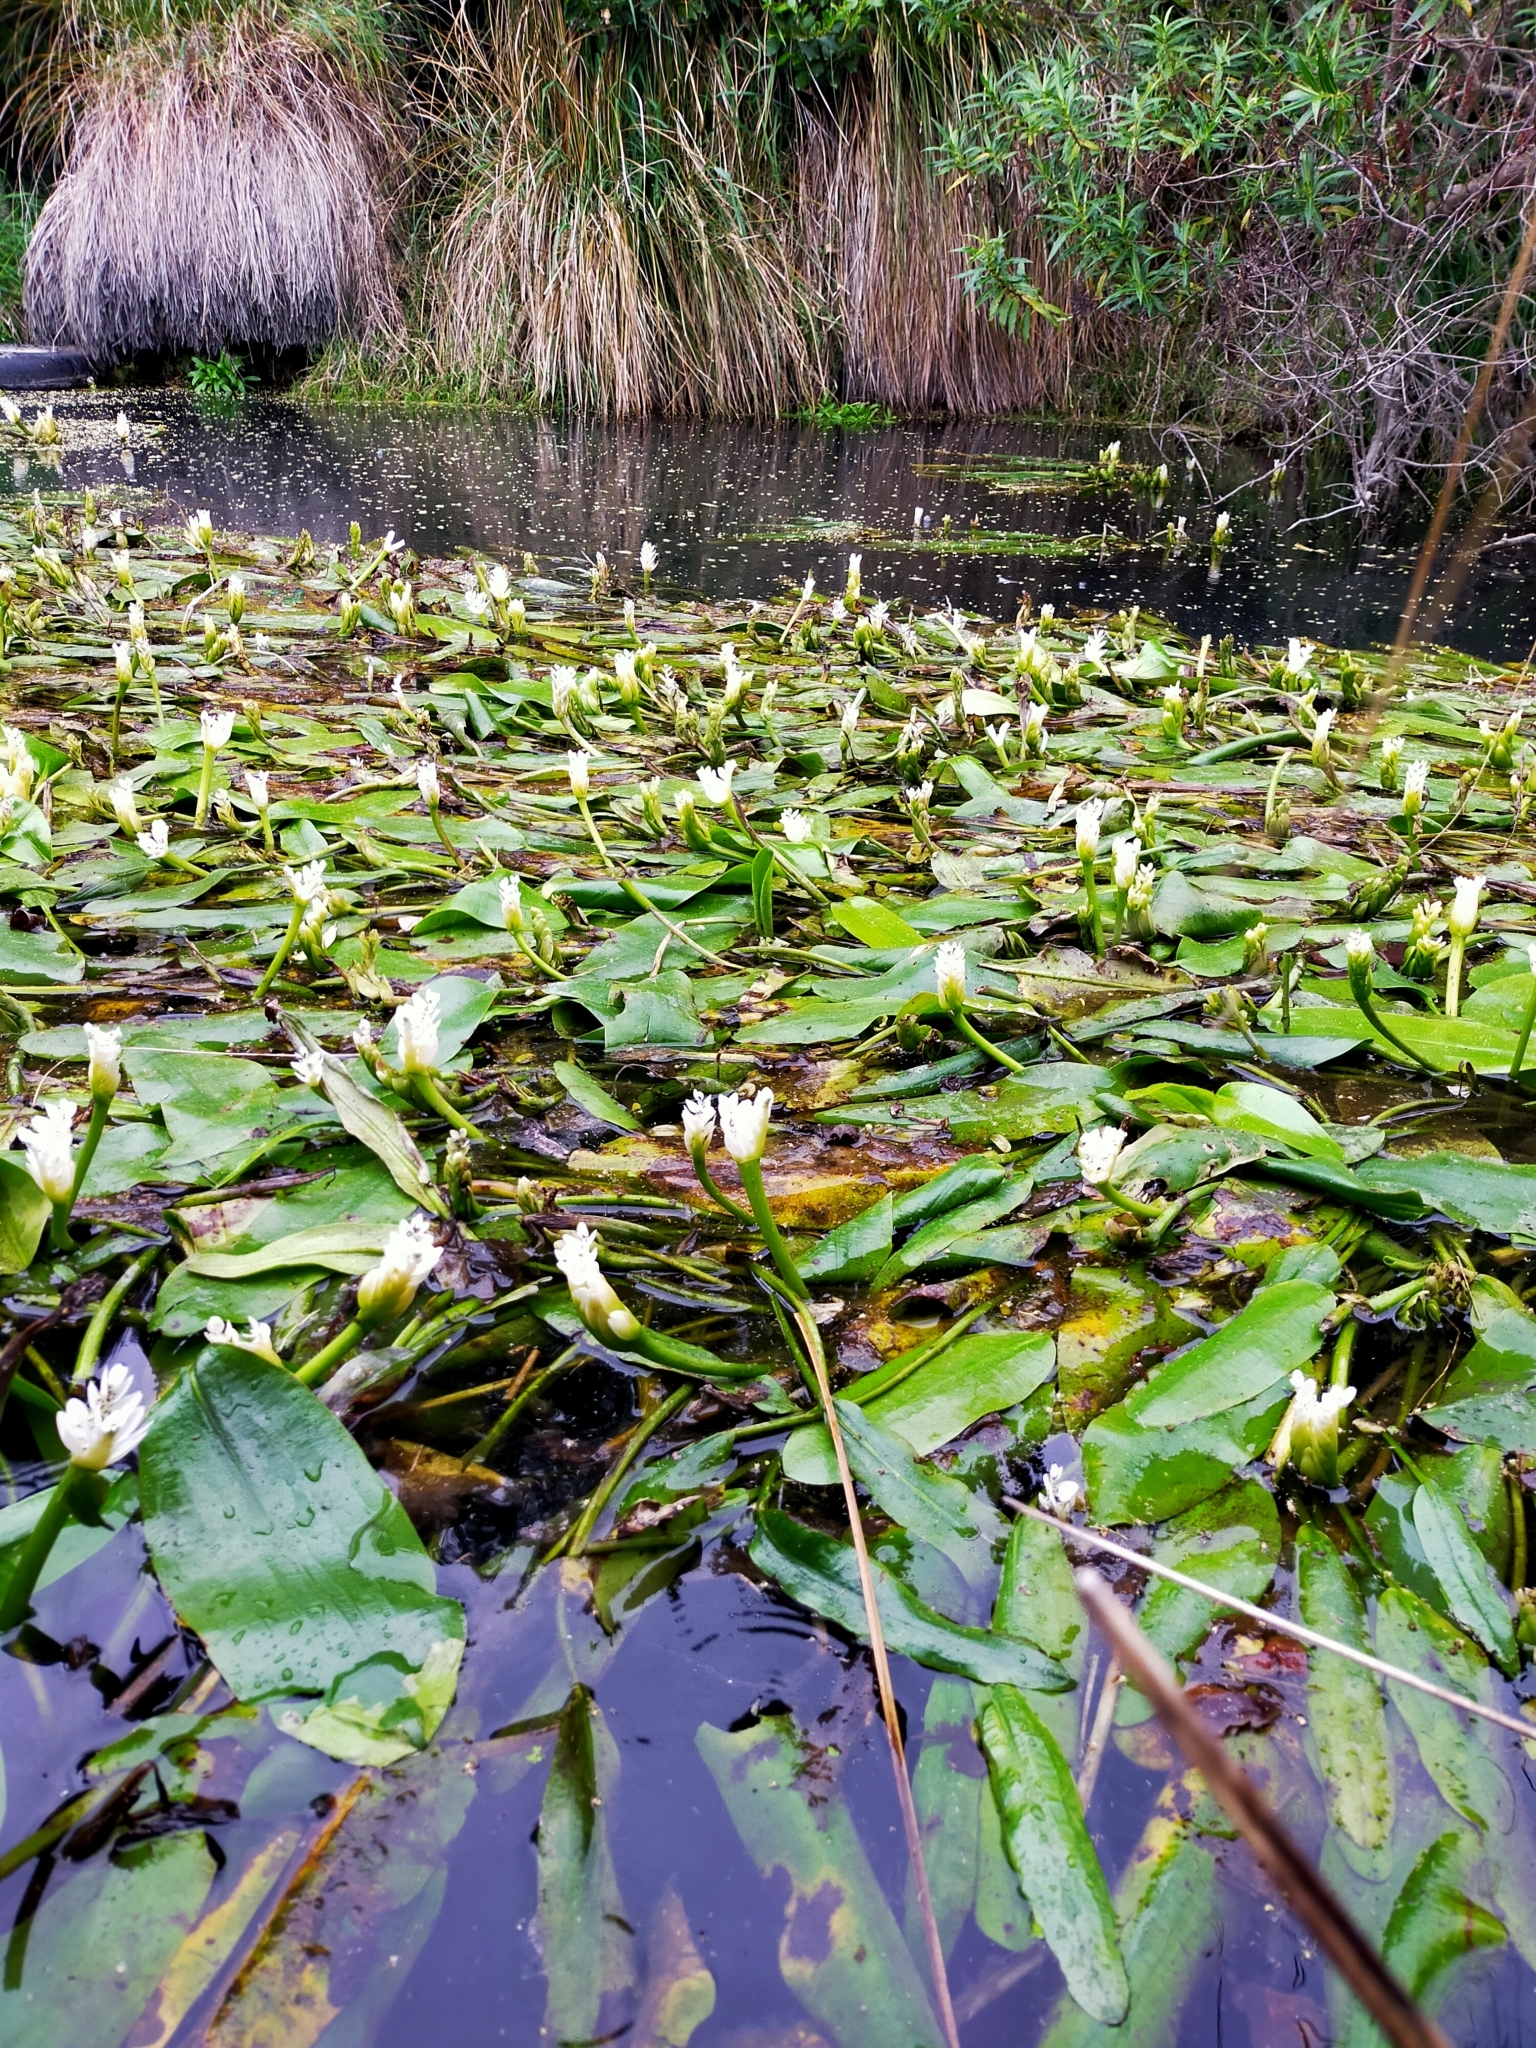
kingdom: Plantae
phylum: Tracheophyta
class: Liliopsida
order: Alismatales
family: Aponogetonaceae
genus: Aponogeton
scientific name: Aponogeton distachyos
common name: Cape-pondweed
